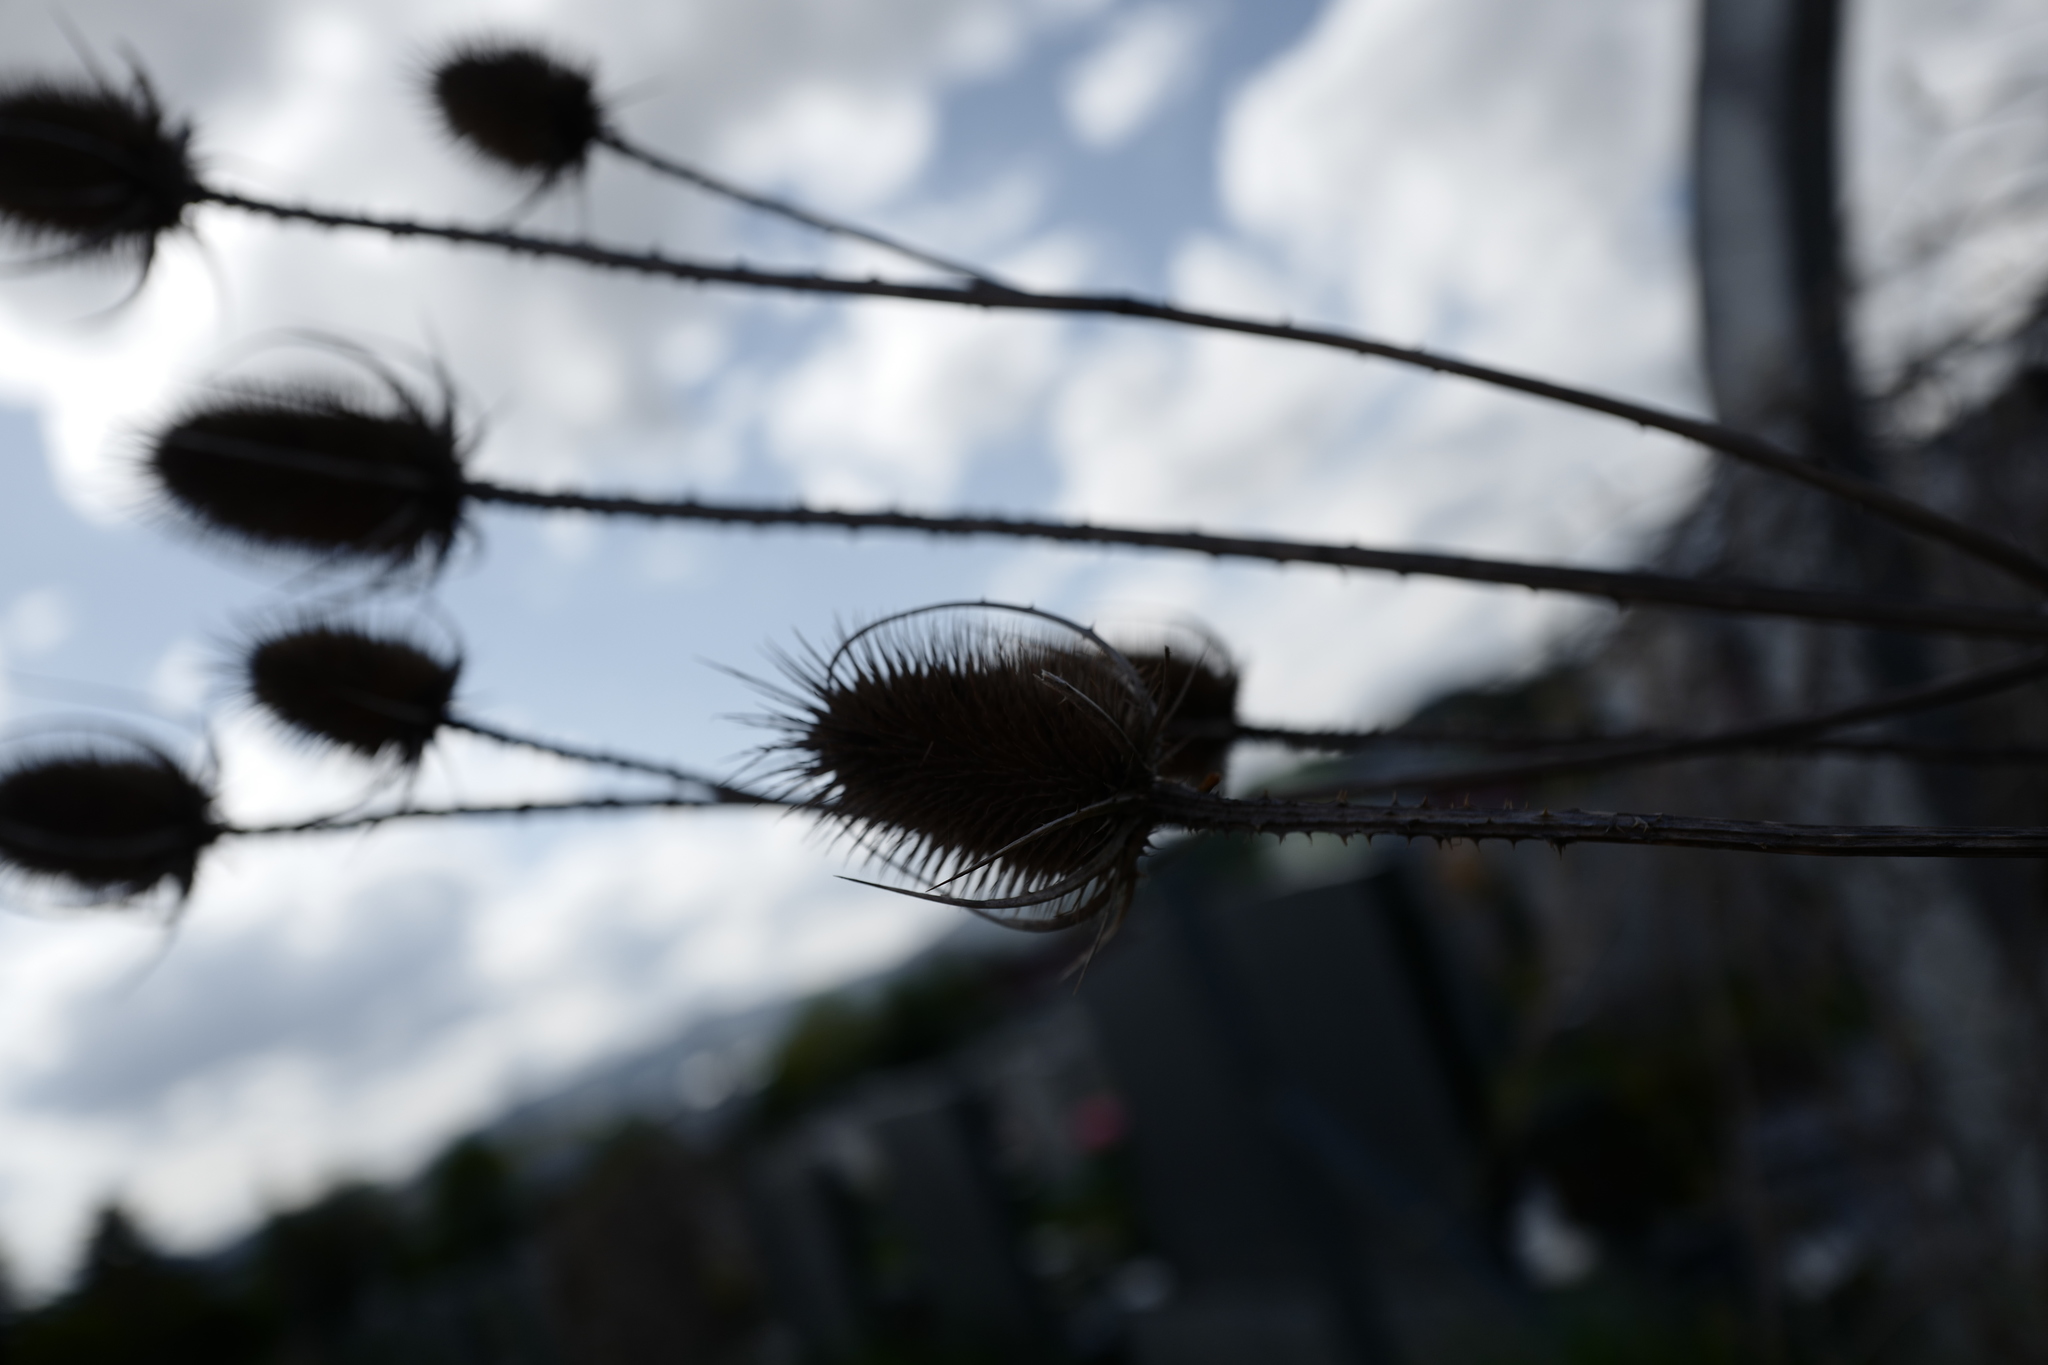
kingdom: Plantae
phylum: Tracheophyta
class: Magnoliopsida
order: Dipsacales
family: Caprifoliaceae
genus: Dipsacus
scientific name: Dipsacus fullonum
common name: Teasel
